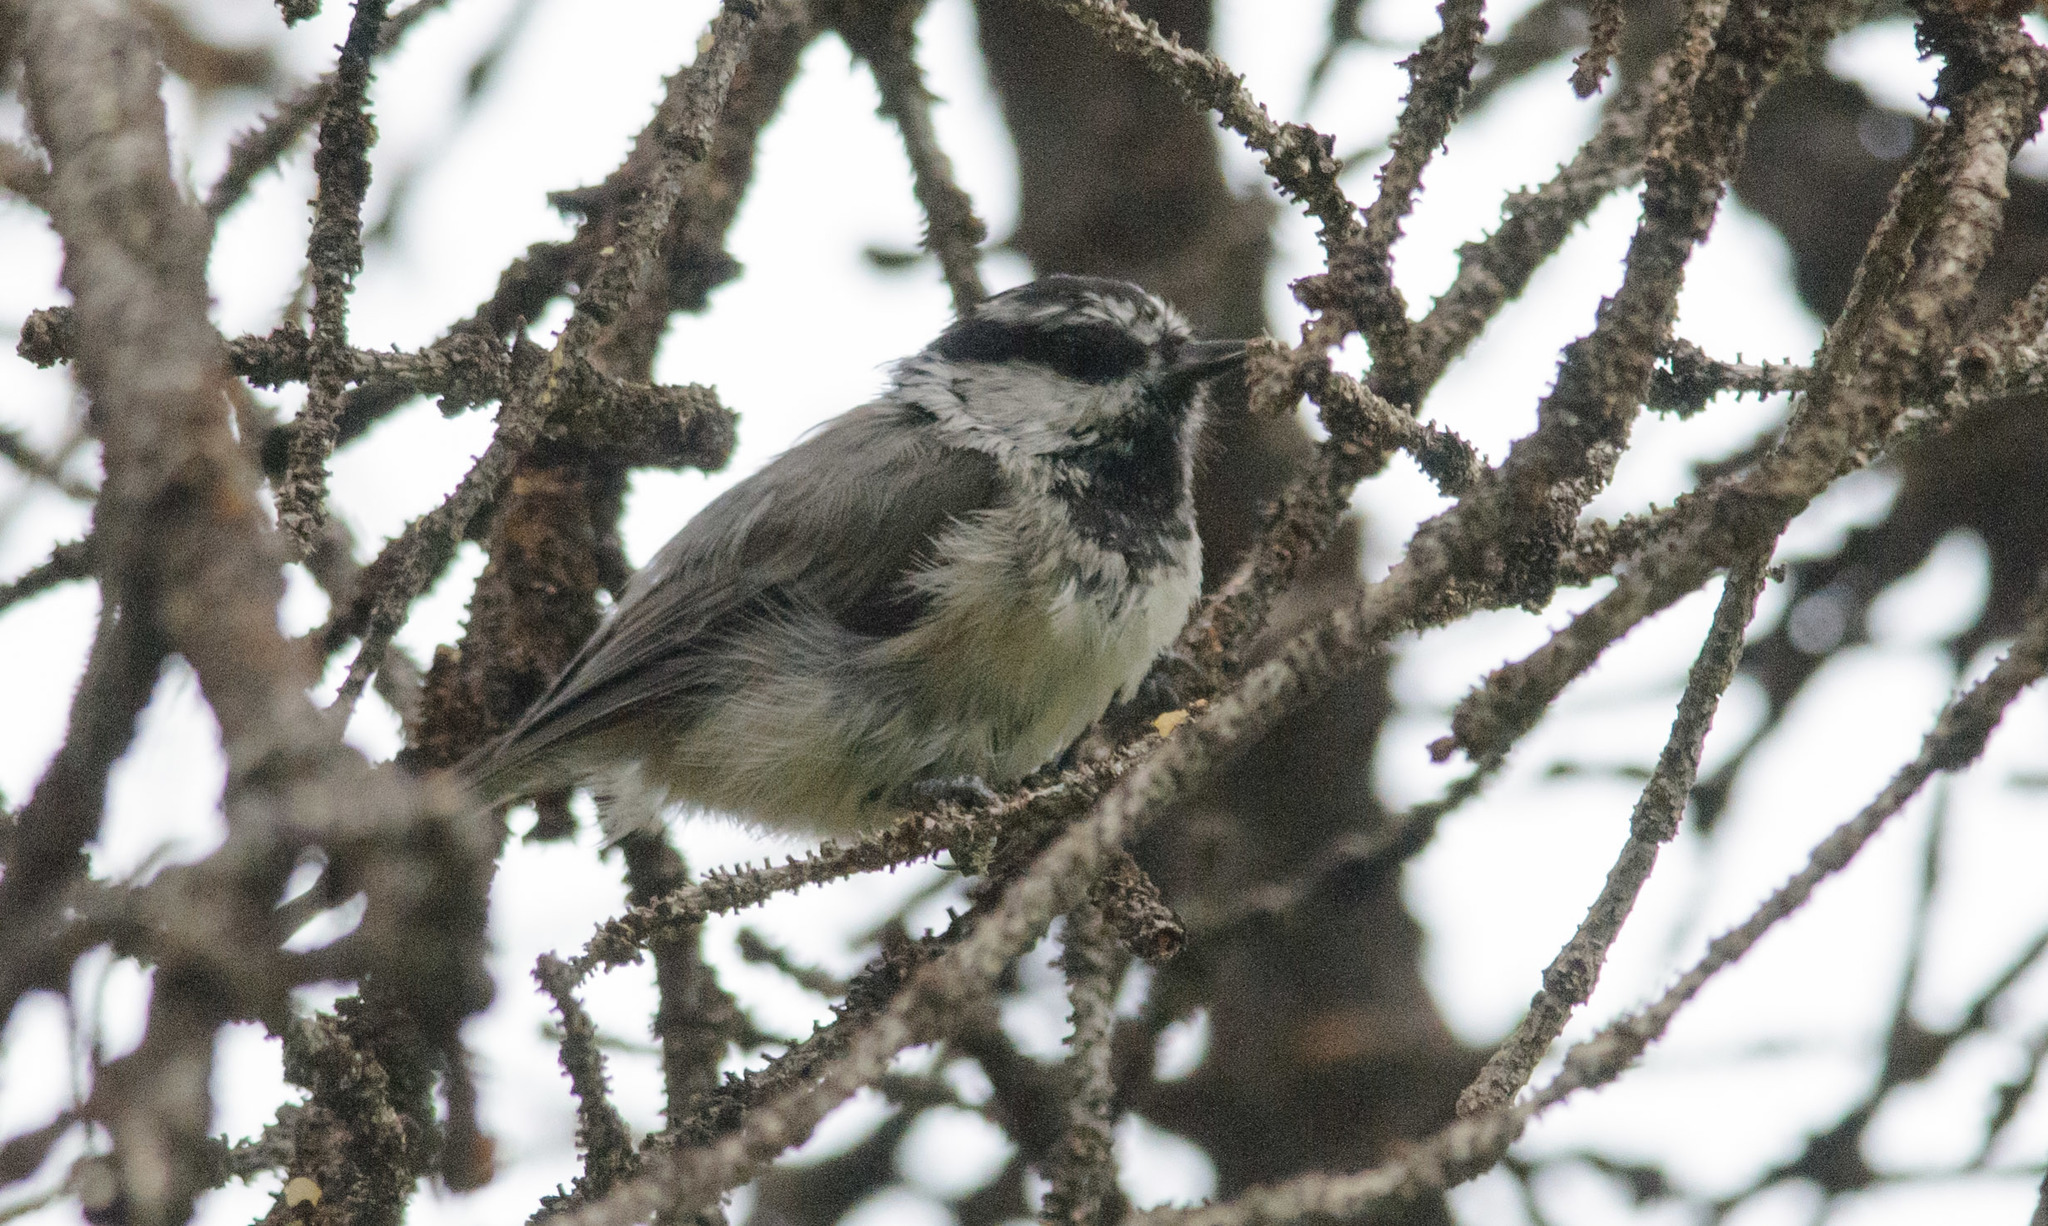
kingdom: Animalia
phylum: Chordata
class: Aves
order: Passeriformes
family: Paridae
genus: Poecile
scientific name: Poecile gambeli
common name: Mountain chickadee
